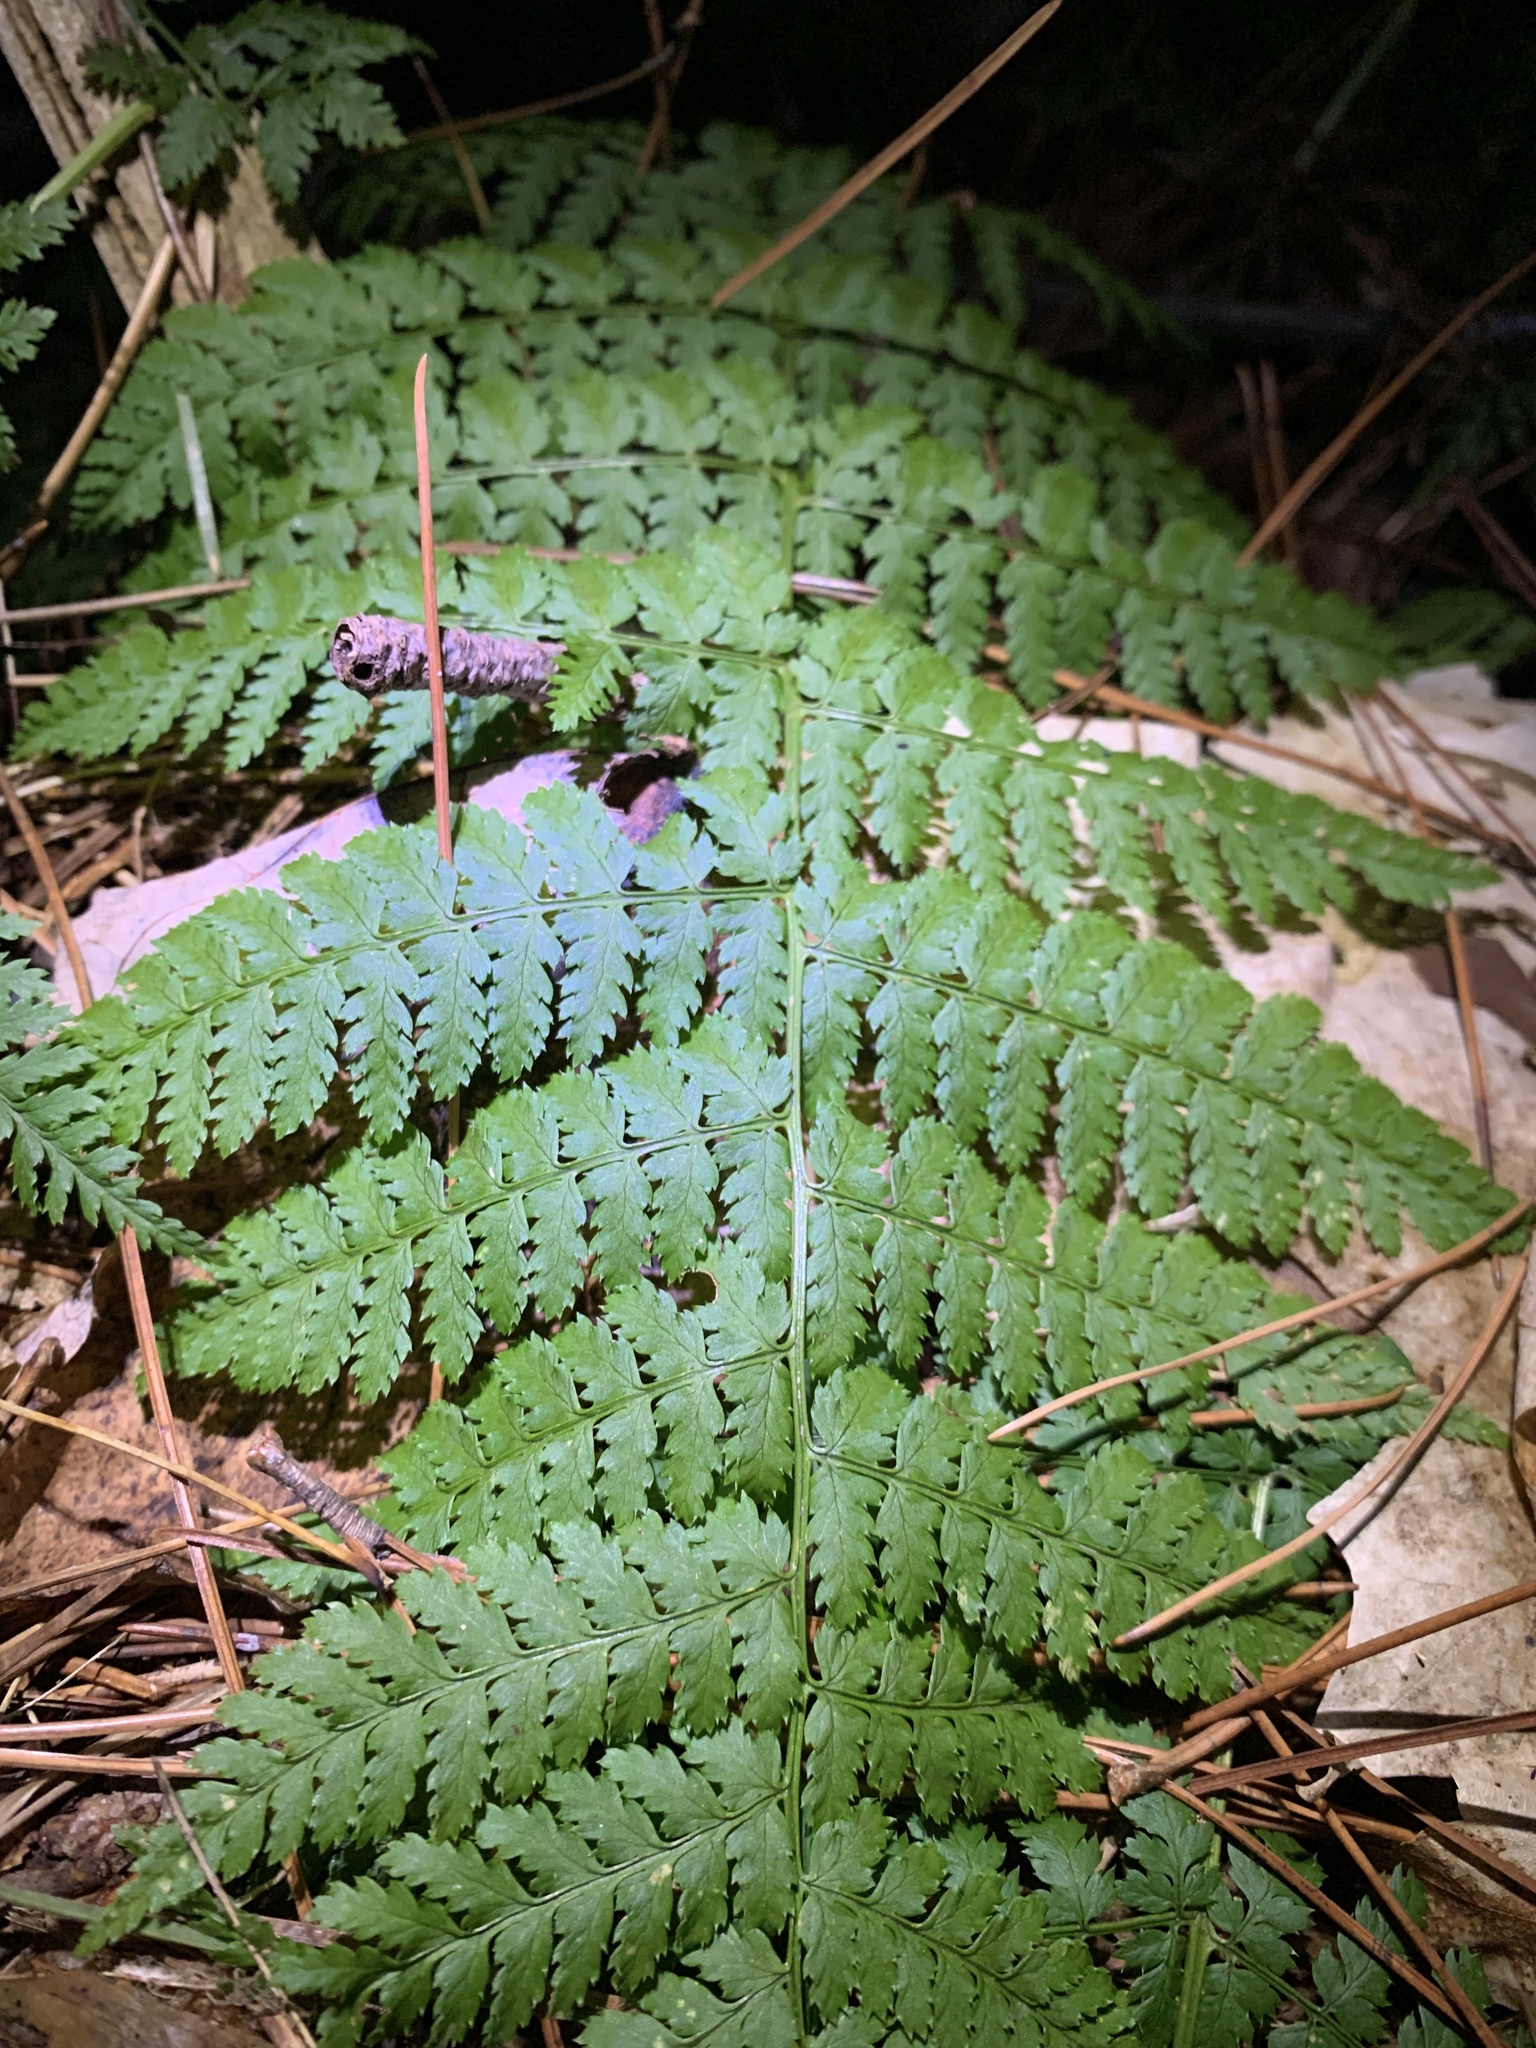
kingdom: Plantae
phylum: Tracheophyta
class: Polypodiopsida
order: Polypodiales
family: Dryopteridaceae
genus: Dryopteris
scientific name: Dryopteris intermedia
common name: Evergreen wood fern
